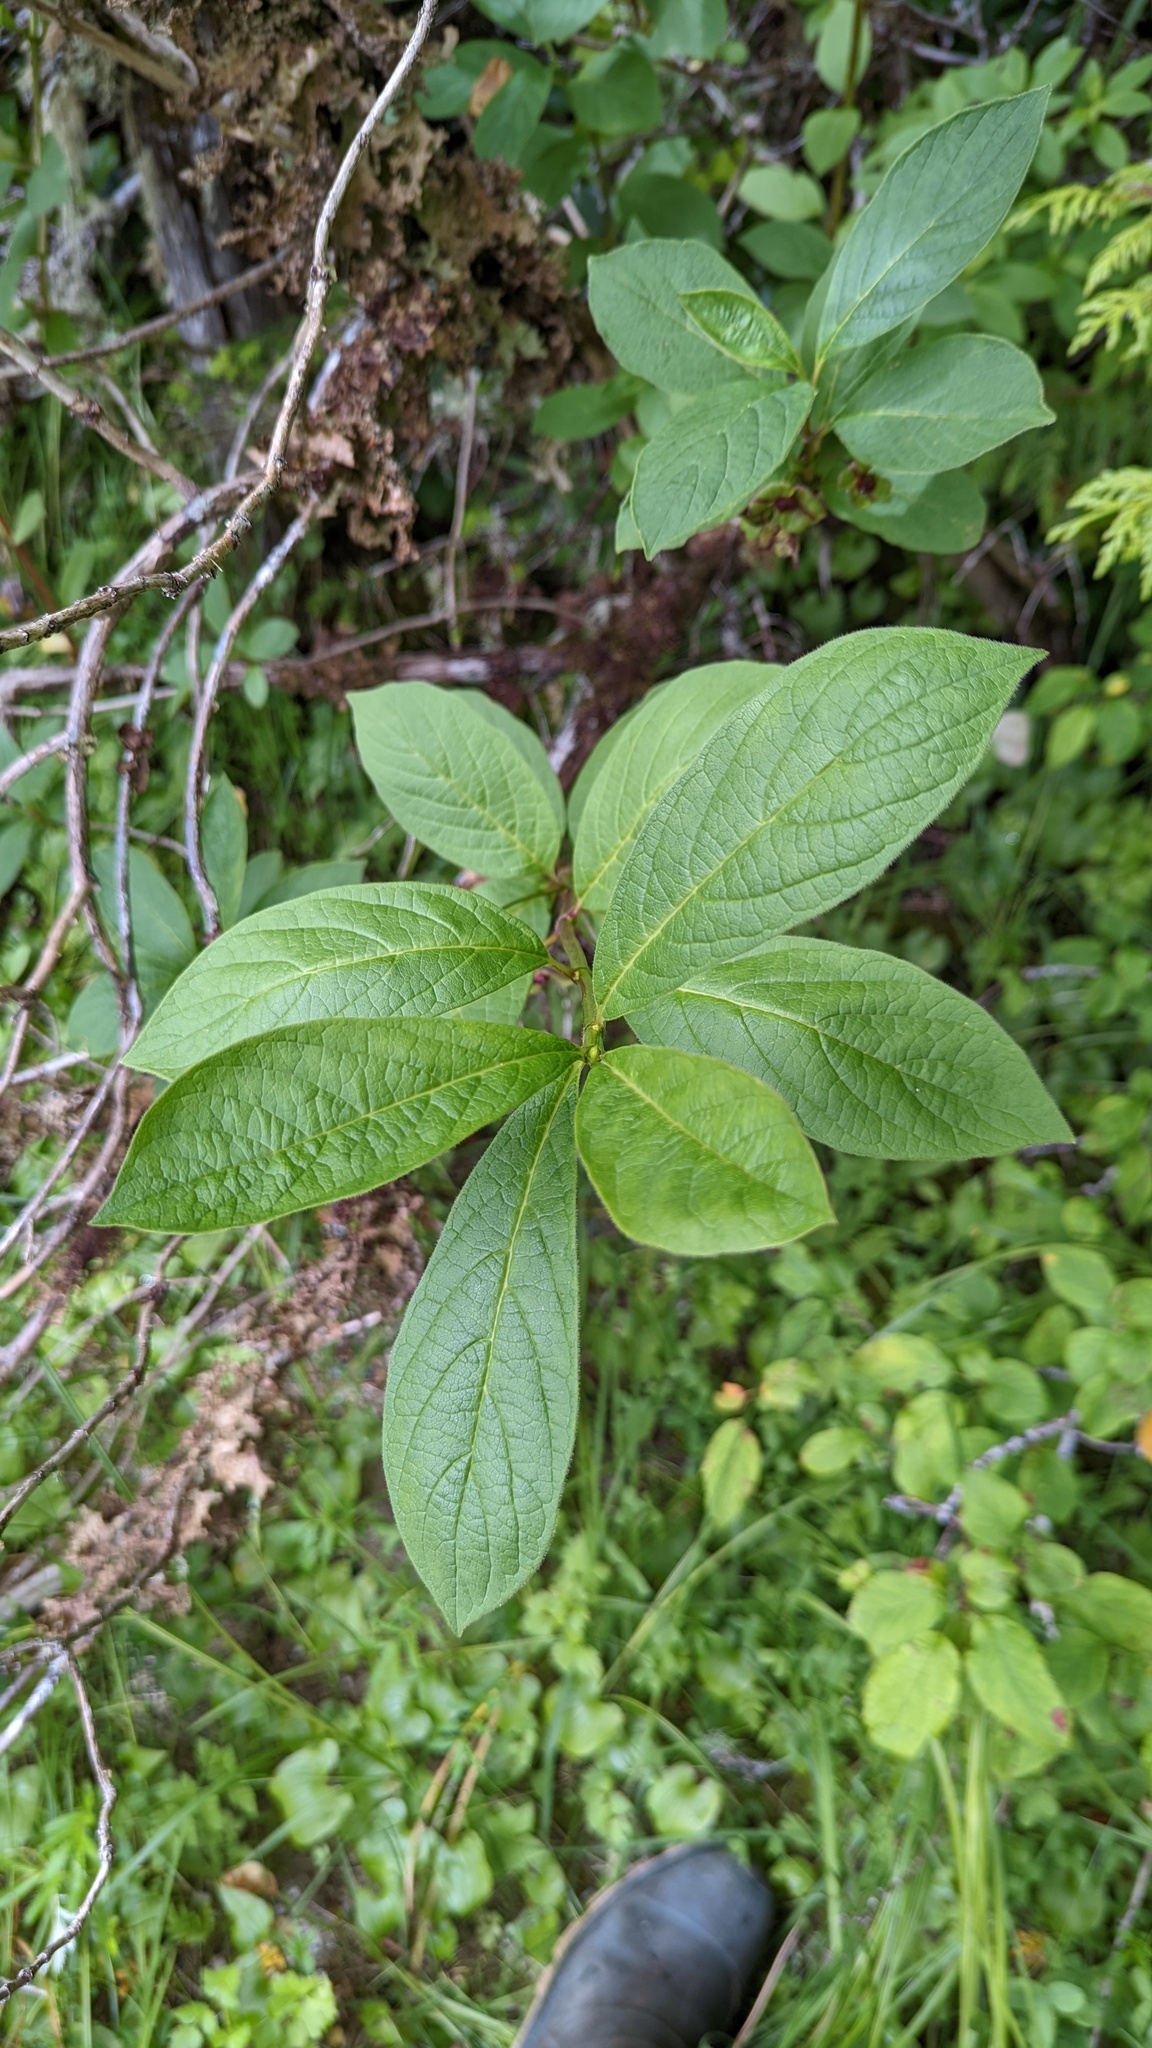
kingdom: Plantae
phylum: Tracheophyta
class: Magnoliopsida
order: Dipsacales
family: Caprifoliaceae
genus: Lonicera
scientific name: Lonicera involucrata
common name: Californian honeysuckle
